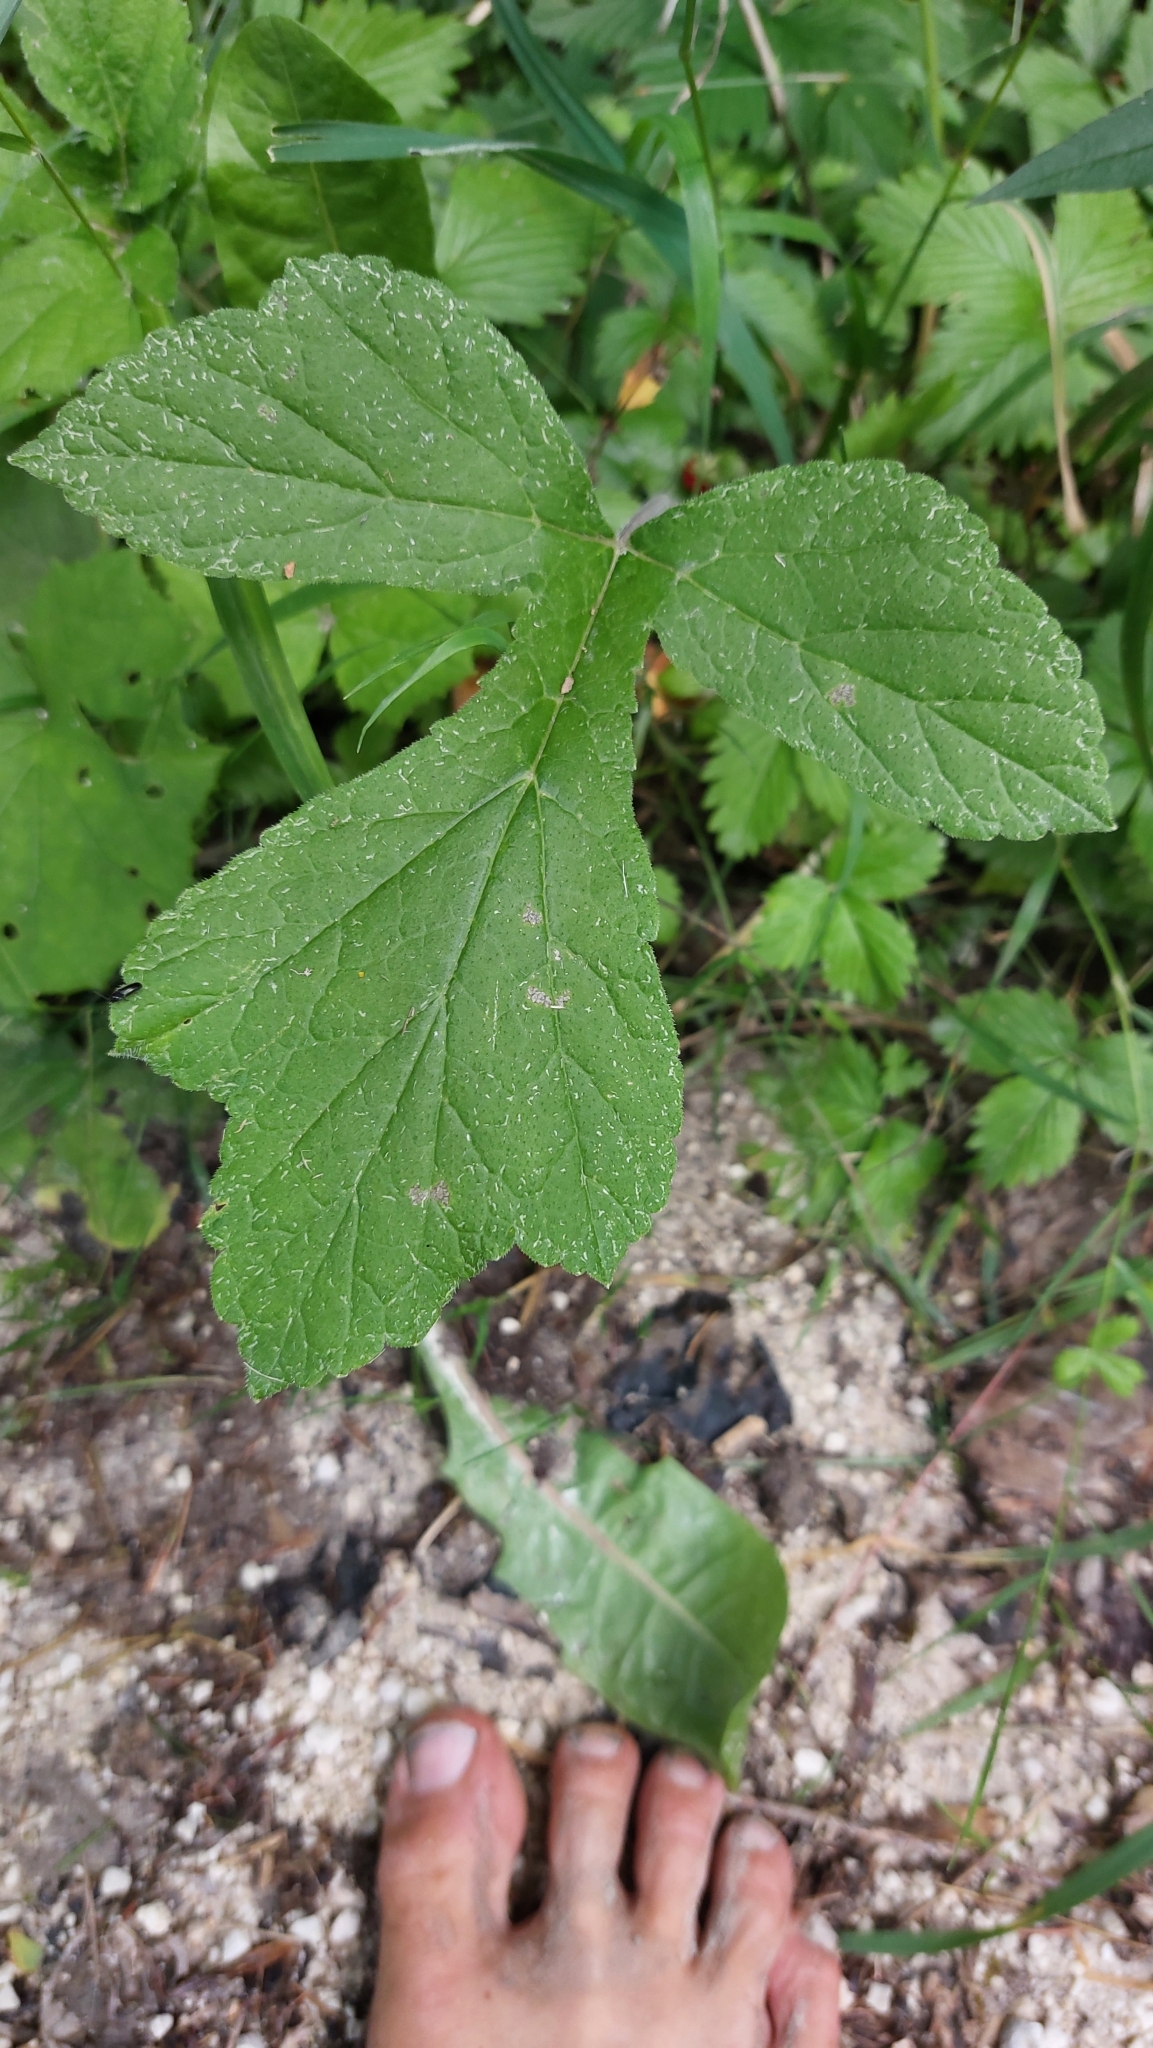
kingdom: Plantae
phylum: Tracheophyta
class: Magnoliopsida
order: Apiales
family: Apiaceae
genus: Heracleum
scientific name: Heracleum sphondylium
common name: Hogweed
